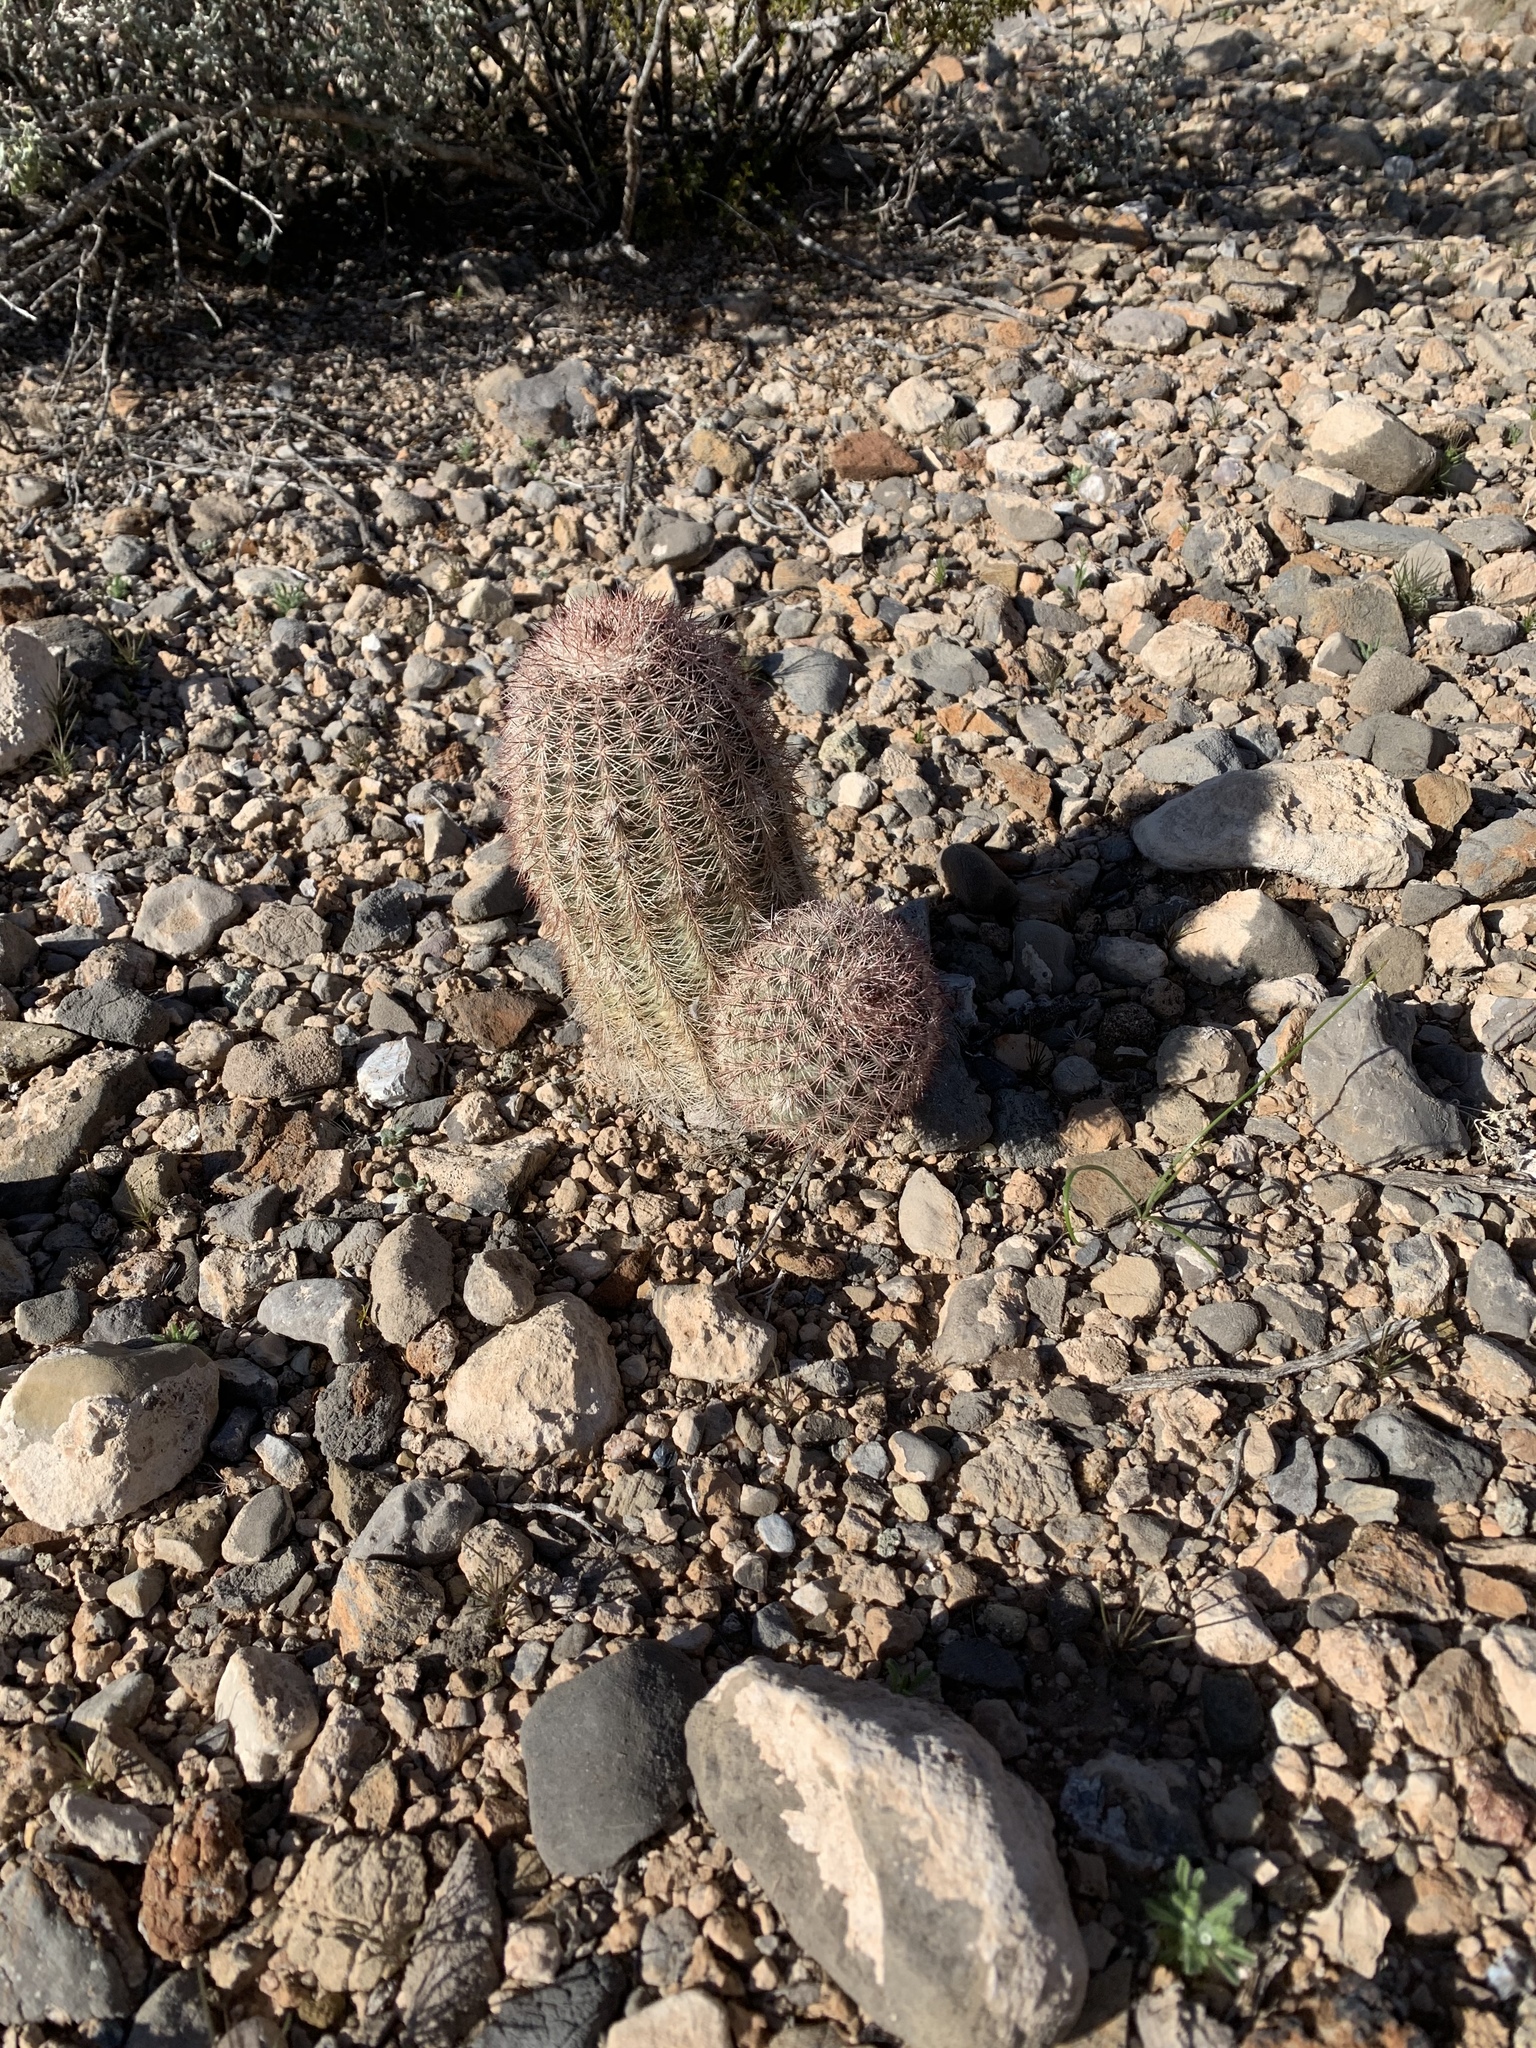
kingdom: Plantae
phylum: Tracheophyta
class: Magnoliopsida
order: Caryophyllales
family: Cactaceae
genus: Echinocereus
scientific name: Echinocereus dasyacanthus
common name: Spiny hedgehog cactus
